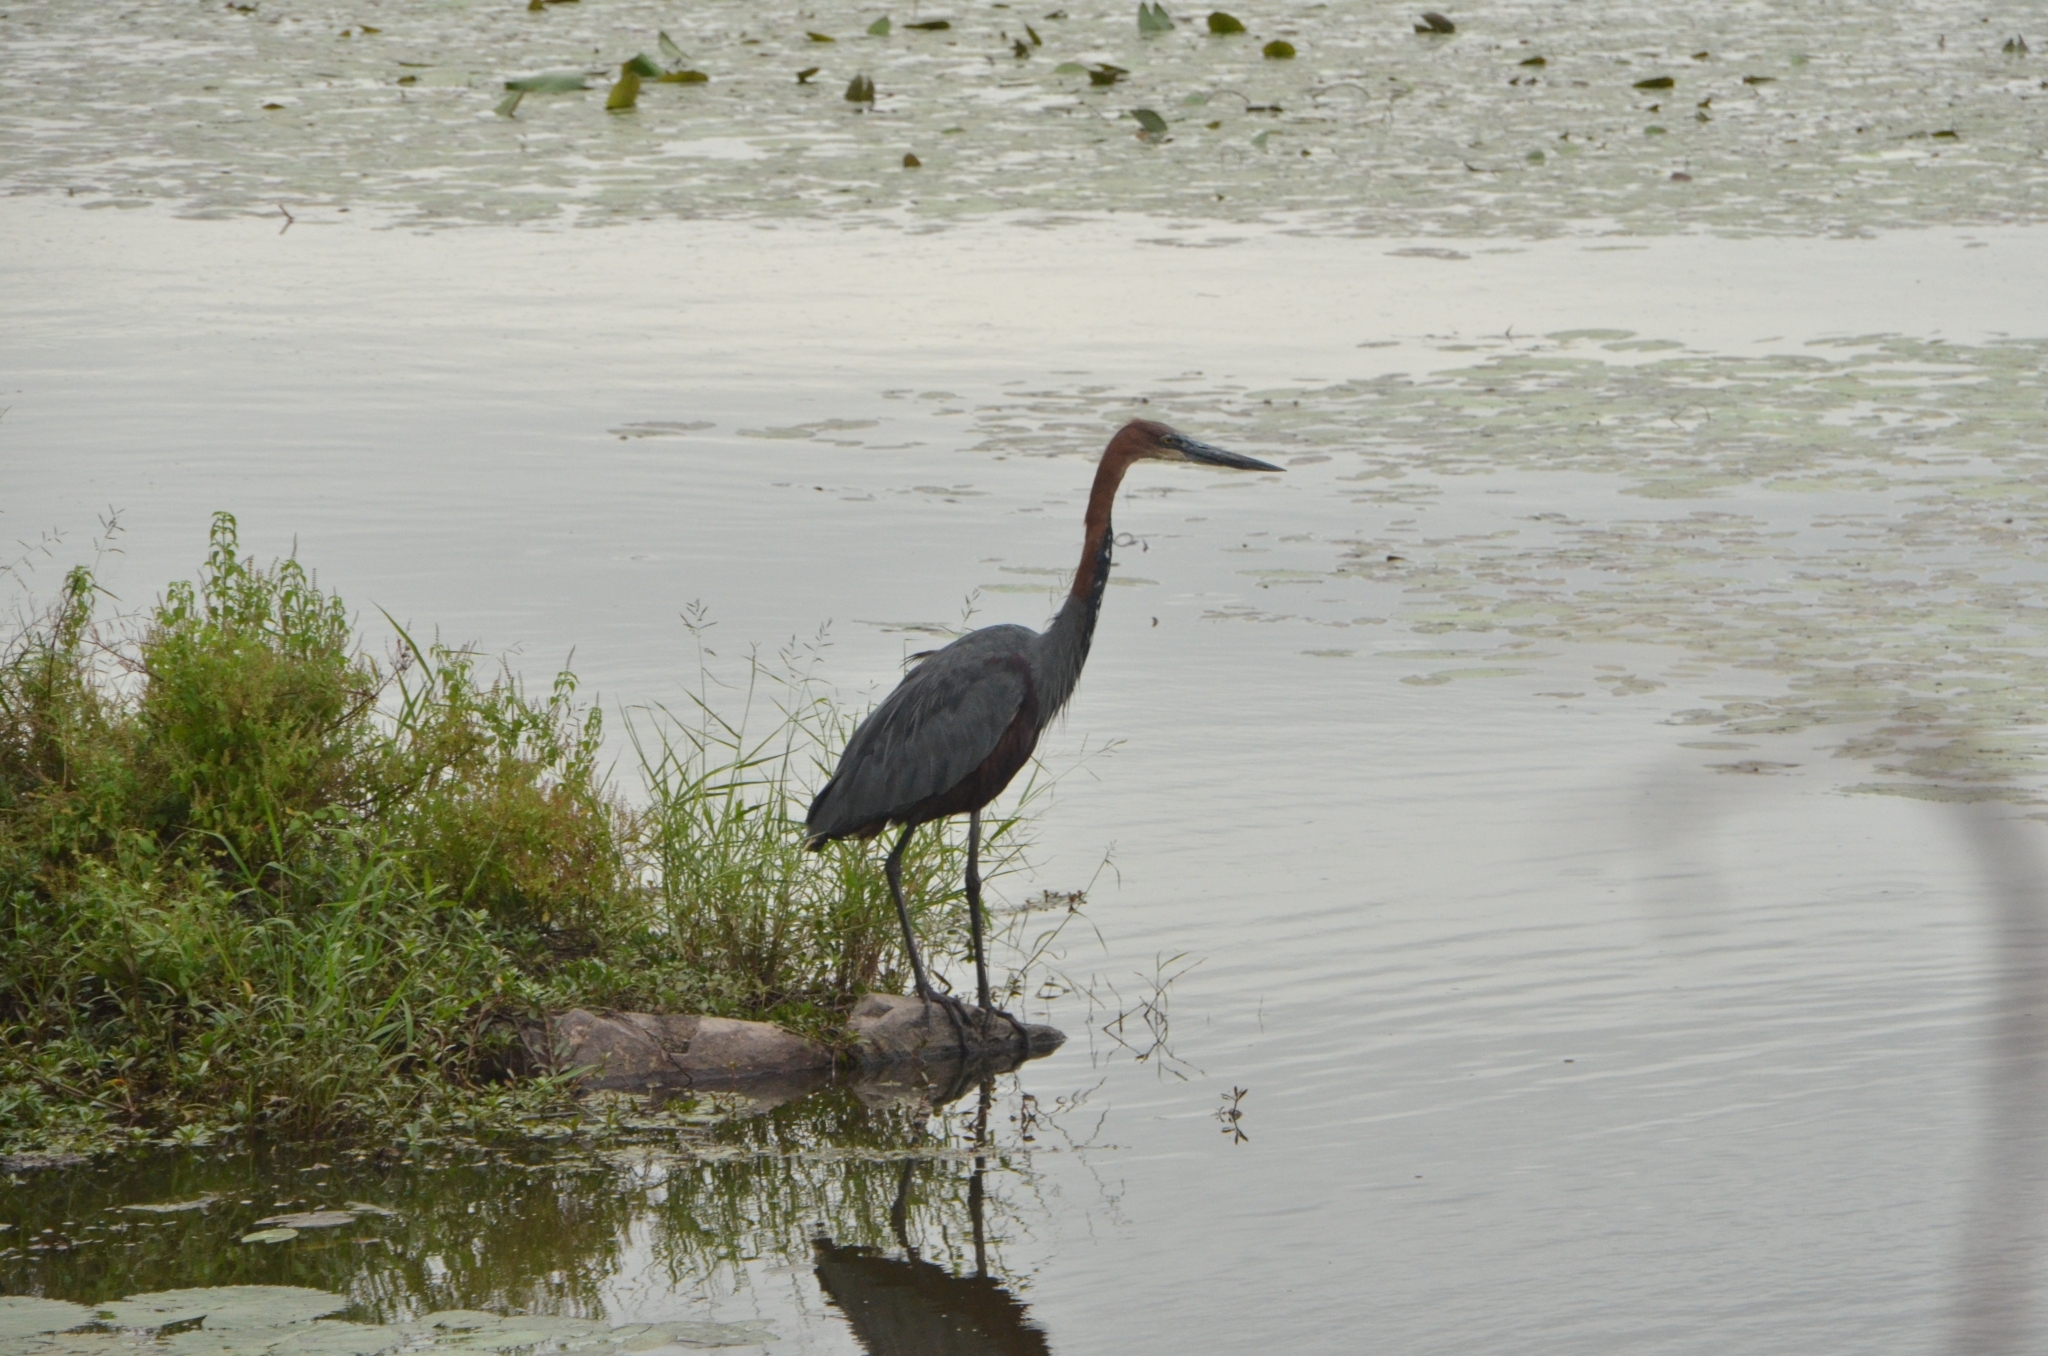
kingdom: Animalia
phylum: Chordata
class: Aves
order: Pelecaniformes
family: Ardeidae
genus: Ardea
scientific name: Ardea goliath
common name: Goliath heron
